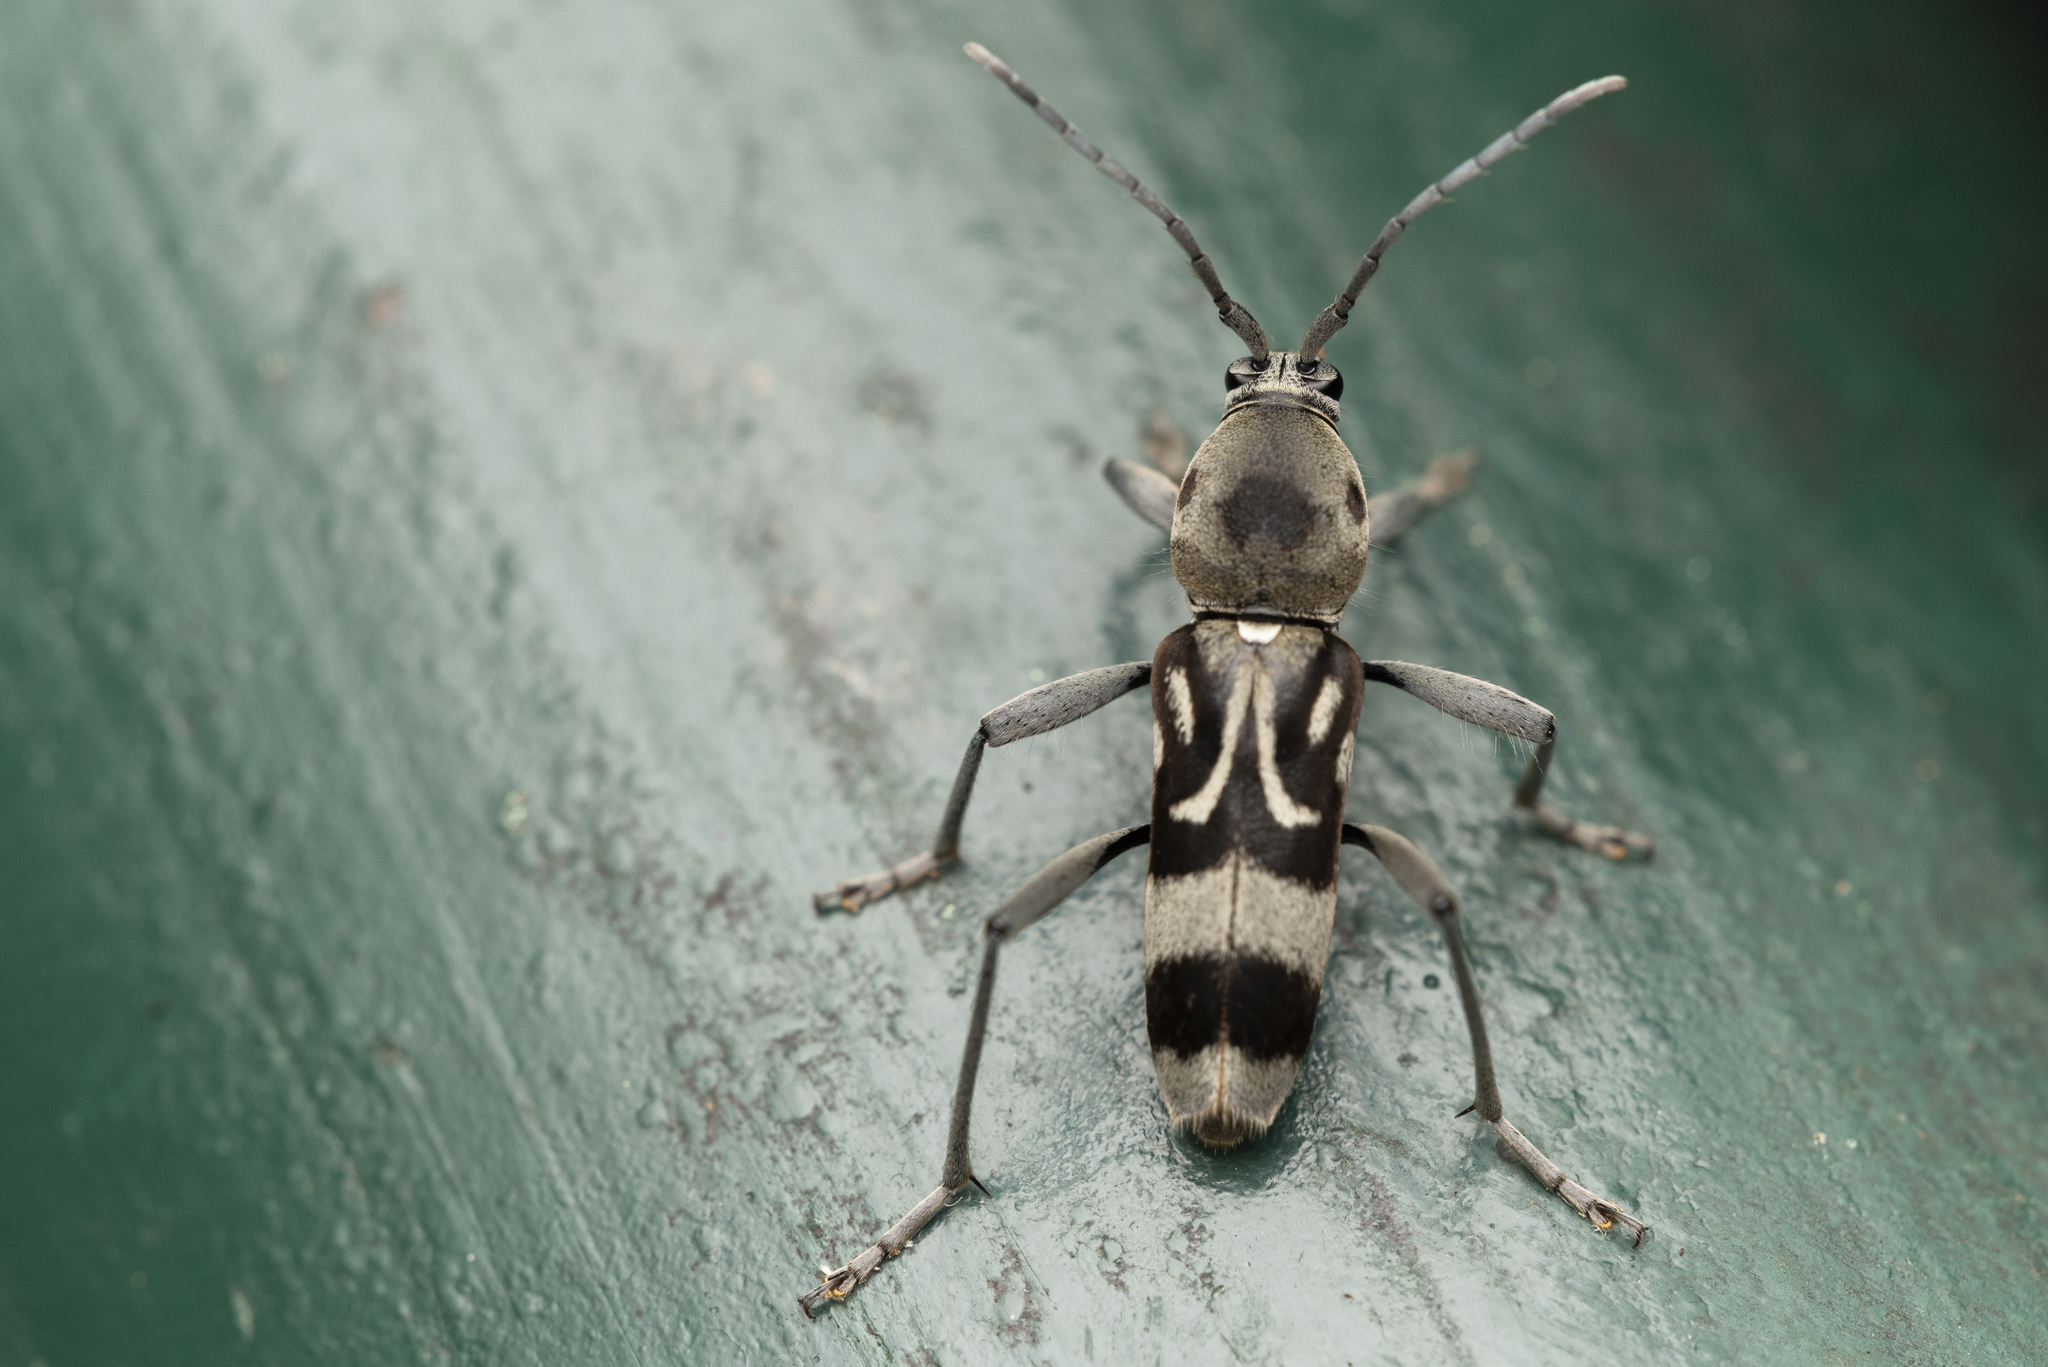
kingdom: Animalia
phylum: Arthropoda
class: Insecta
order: Coleoptera
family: Cerambycidae
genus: Chlorophorus
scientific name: Chlorophorus macaumensis
